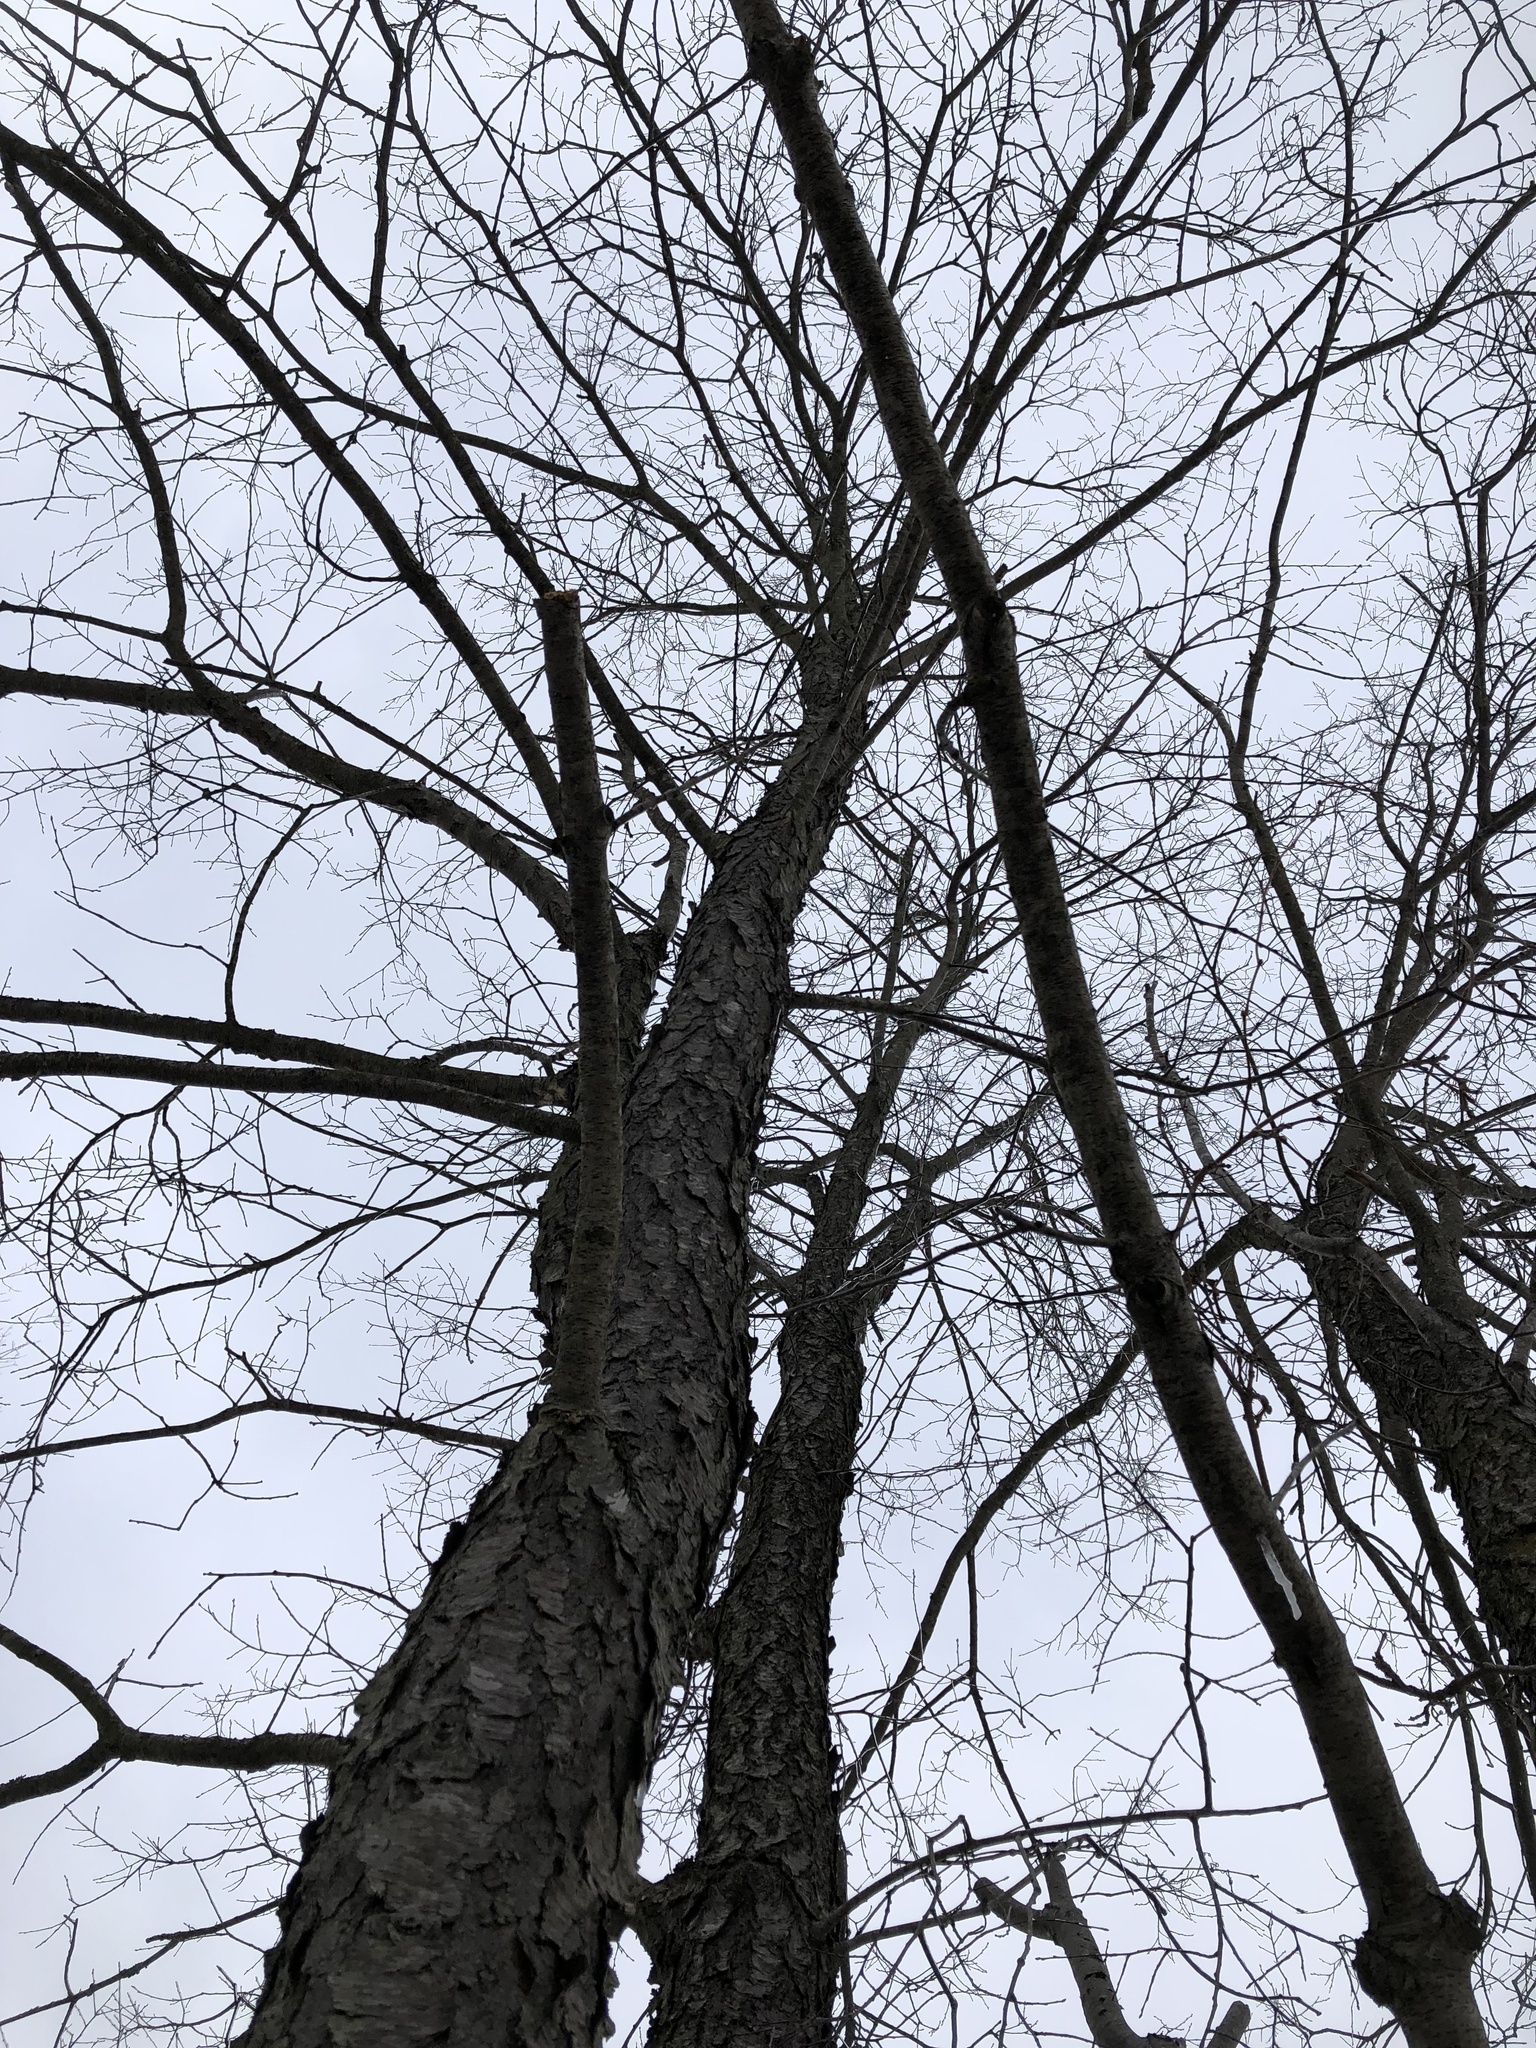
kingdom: Plantae
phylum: Tracheophyta
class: Magnoliopsida
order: Rosales
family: Rosaceae
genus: Prunus
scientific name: Prunus serotina
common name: Black cherry
